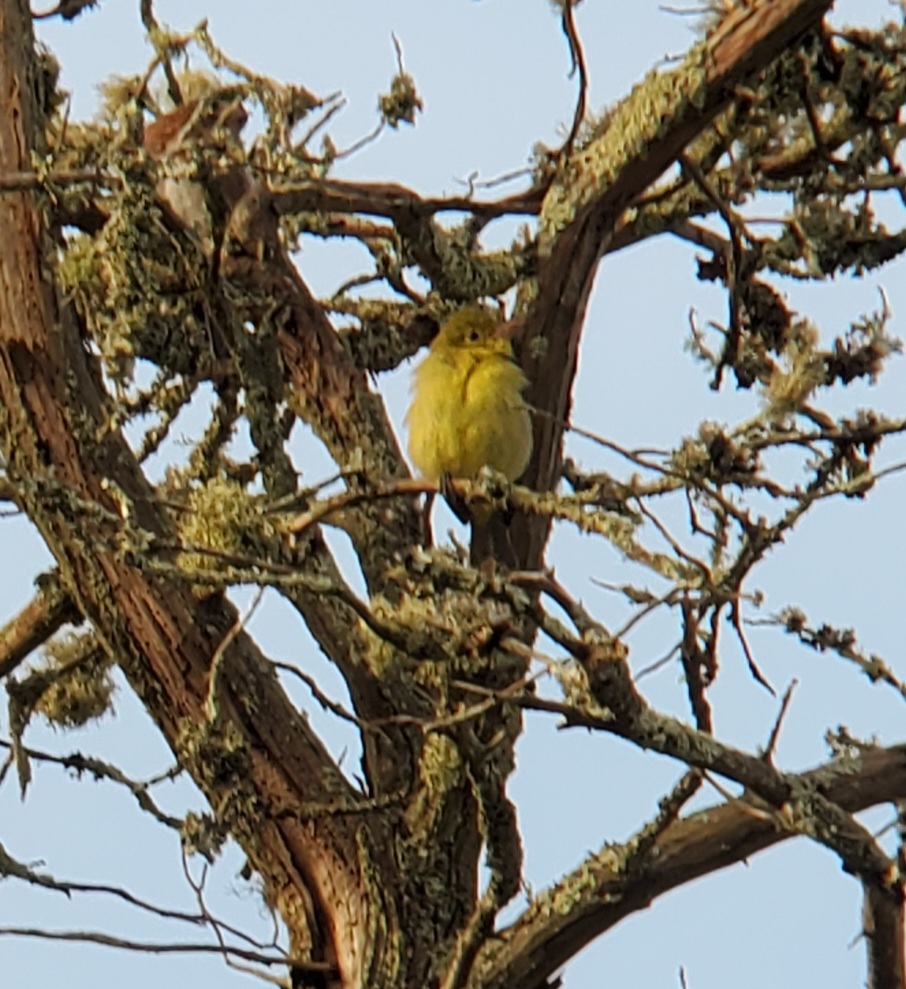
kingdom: Animalia
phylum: Chordata
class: Aves
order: Passeriformes
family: Cardinalidae
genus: Piranga
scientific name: Piranga olivacea
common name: Scarlet tanager
